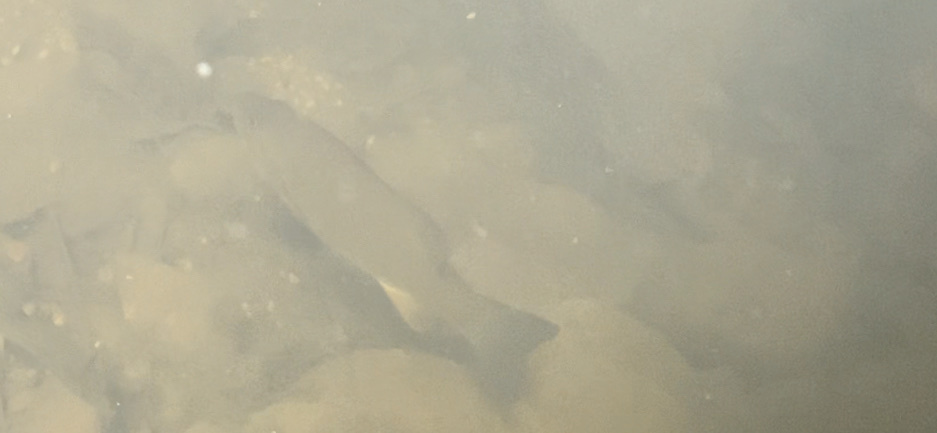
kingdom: Animalia
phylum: Chordata
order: Perciformes
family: Centrarchidae
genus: Micropterus
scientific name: Micropterus dolomieu
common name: Smallmouth bass
